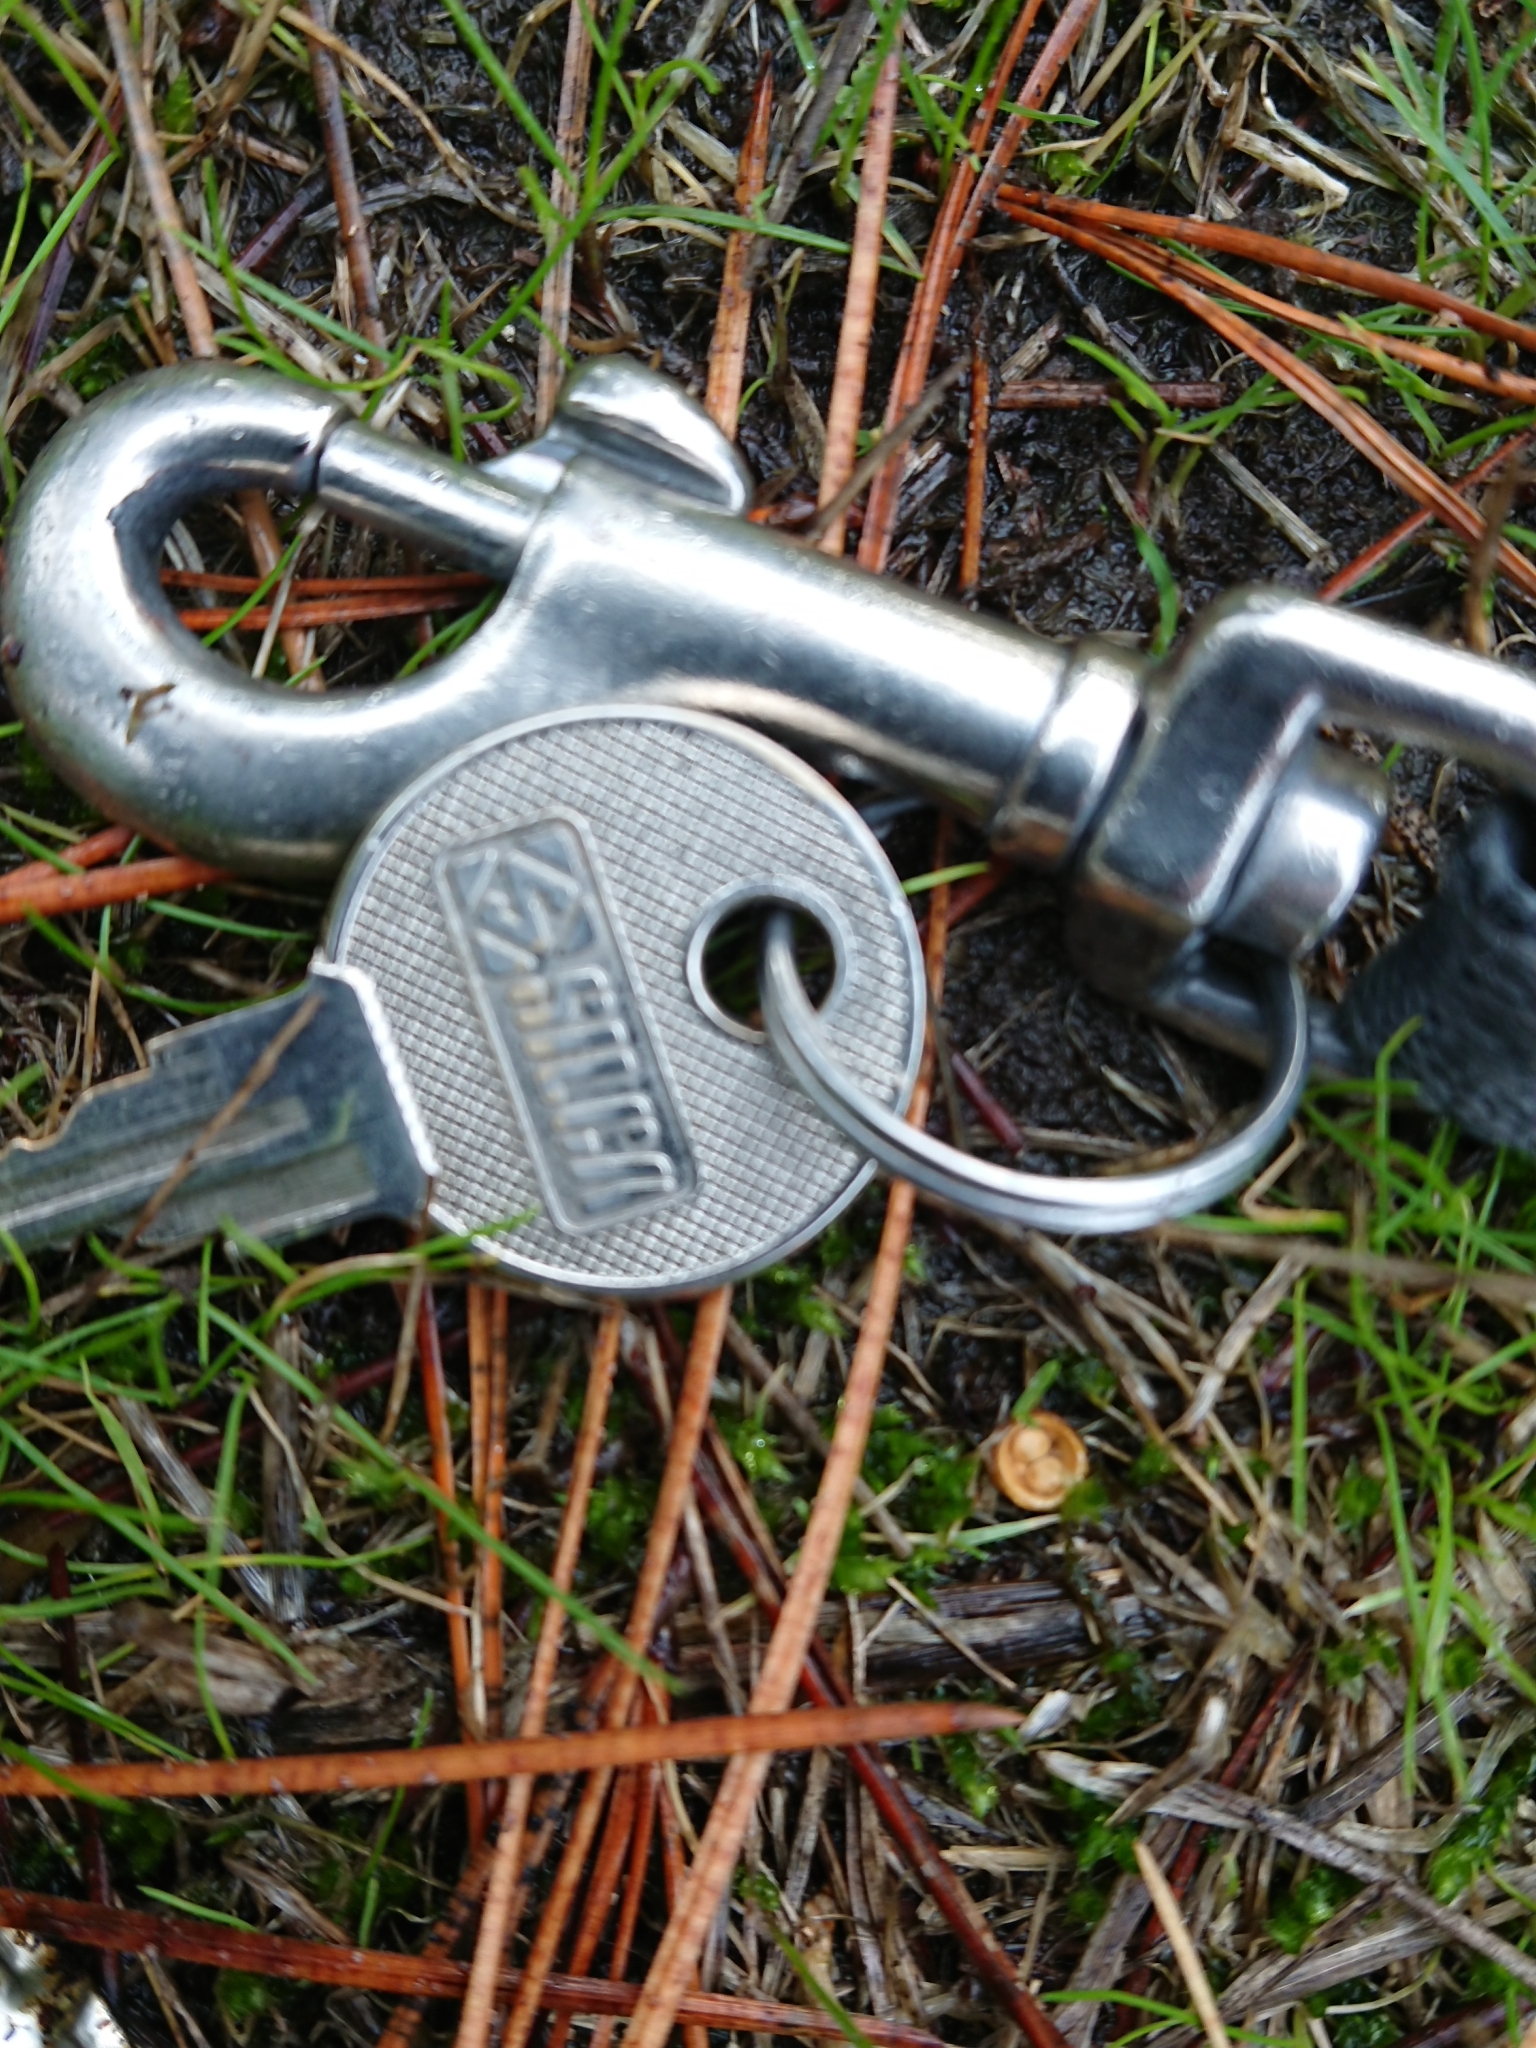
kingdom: Fungi
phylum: Basidiomycota
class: Agaricomycetes
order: Agaricales
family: Nidulariaceae
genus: Crucibulum
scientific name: Crucibulum simile
